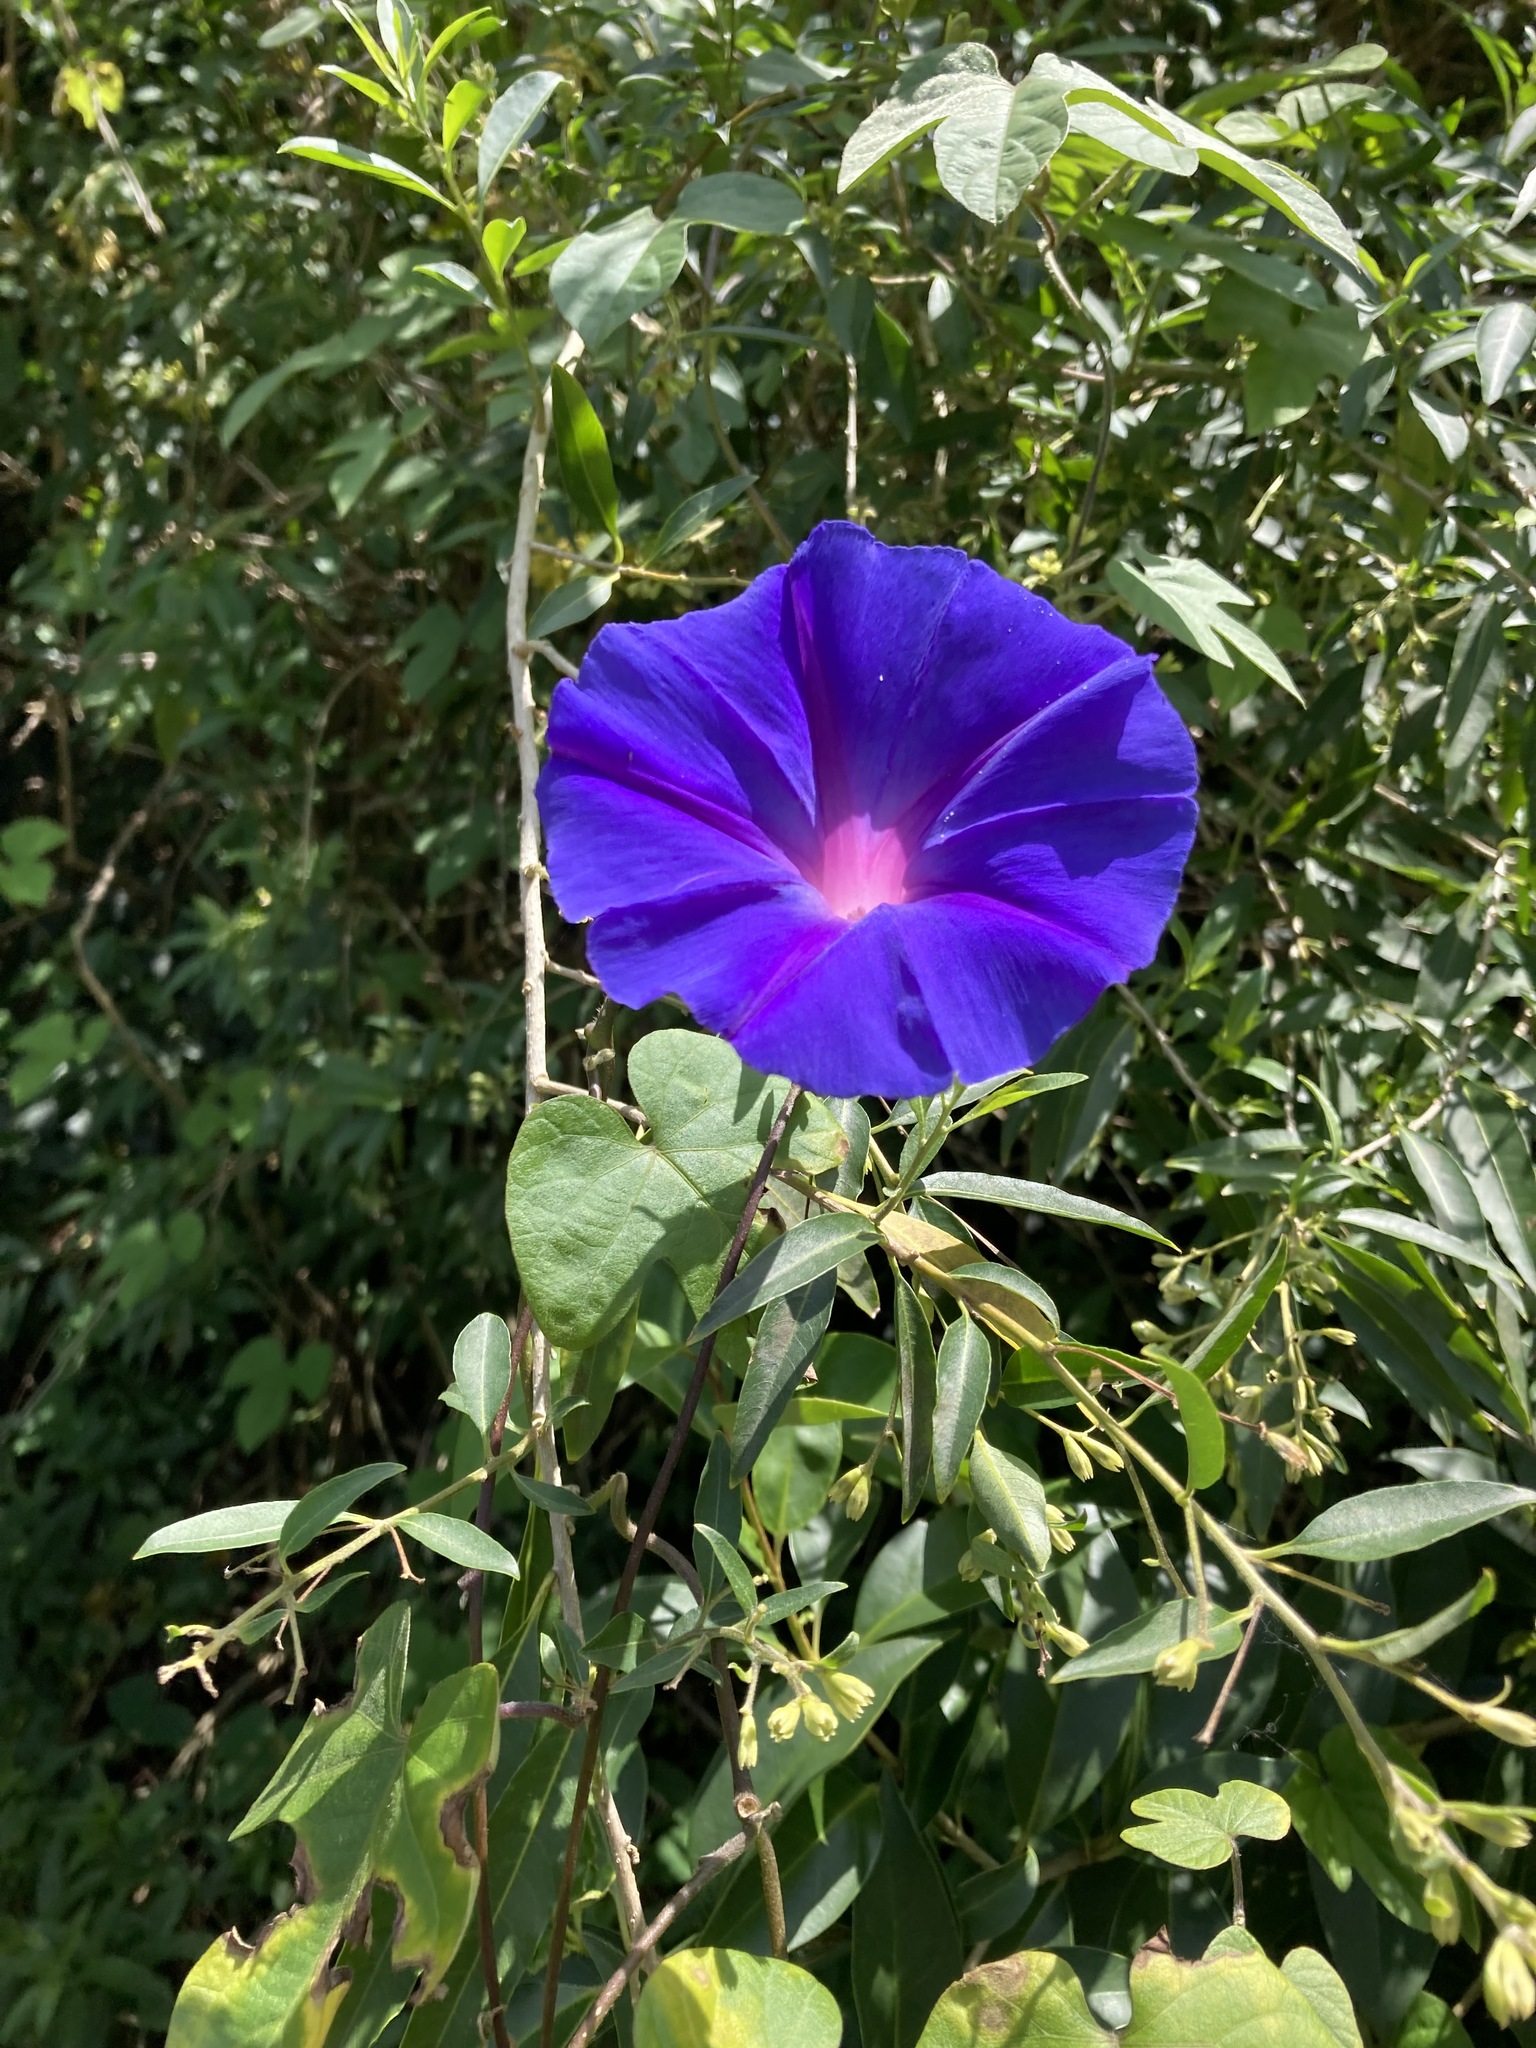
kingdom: Plantae
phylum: Tracheophyta
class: Magnoliopsida
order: Solanales
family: Convolvulaceae
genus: Ipomoea
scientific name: Ipomoea indica
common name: Blue dawnflower
